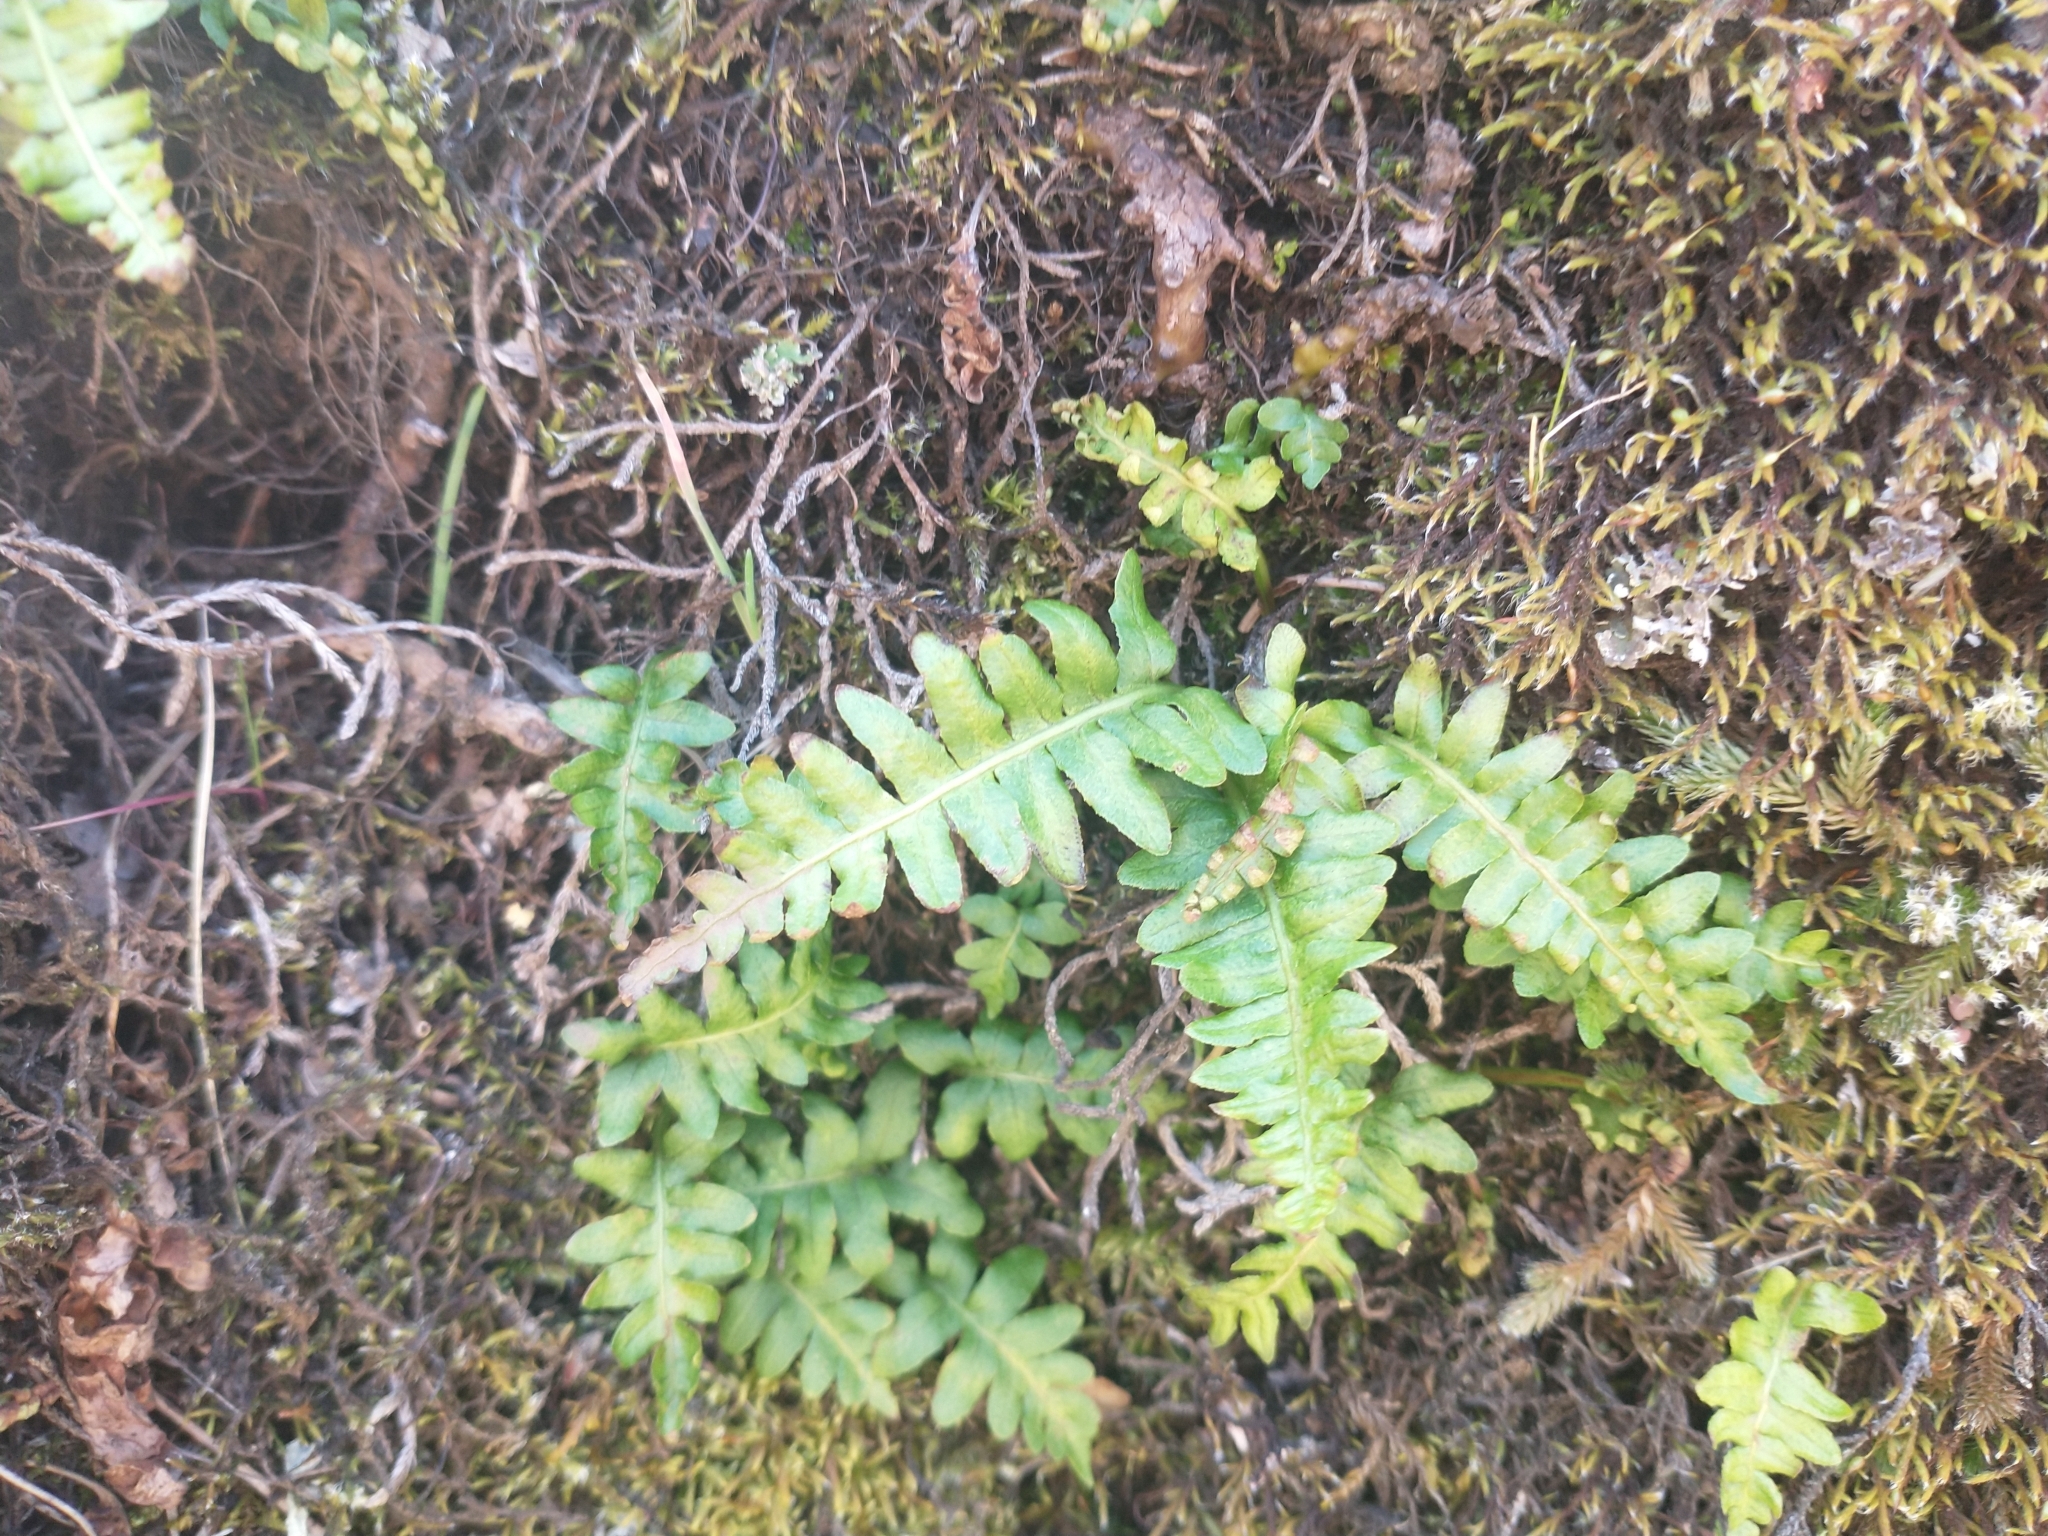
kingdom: Plantae
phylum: Tracheophyta
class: Polypodiopsida
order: Polypodiales
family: Polypodiaceae
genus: Polypodium
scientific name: Polypodium hesperium
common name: Western polypody
